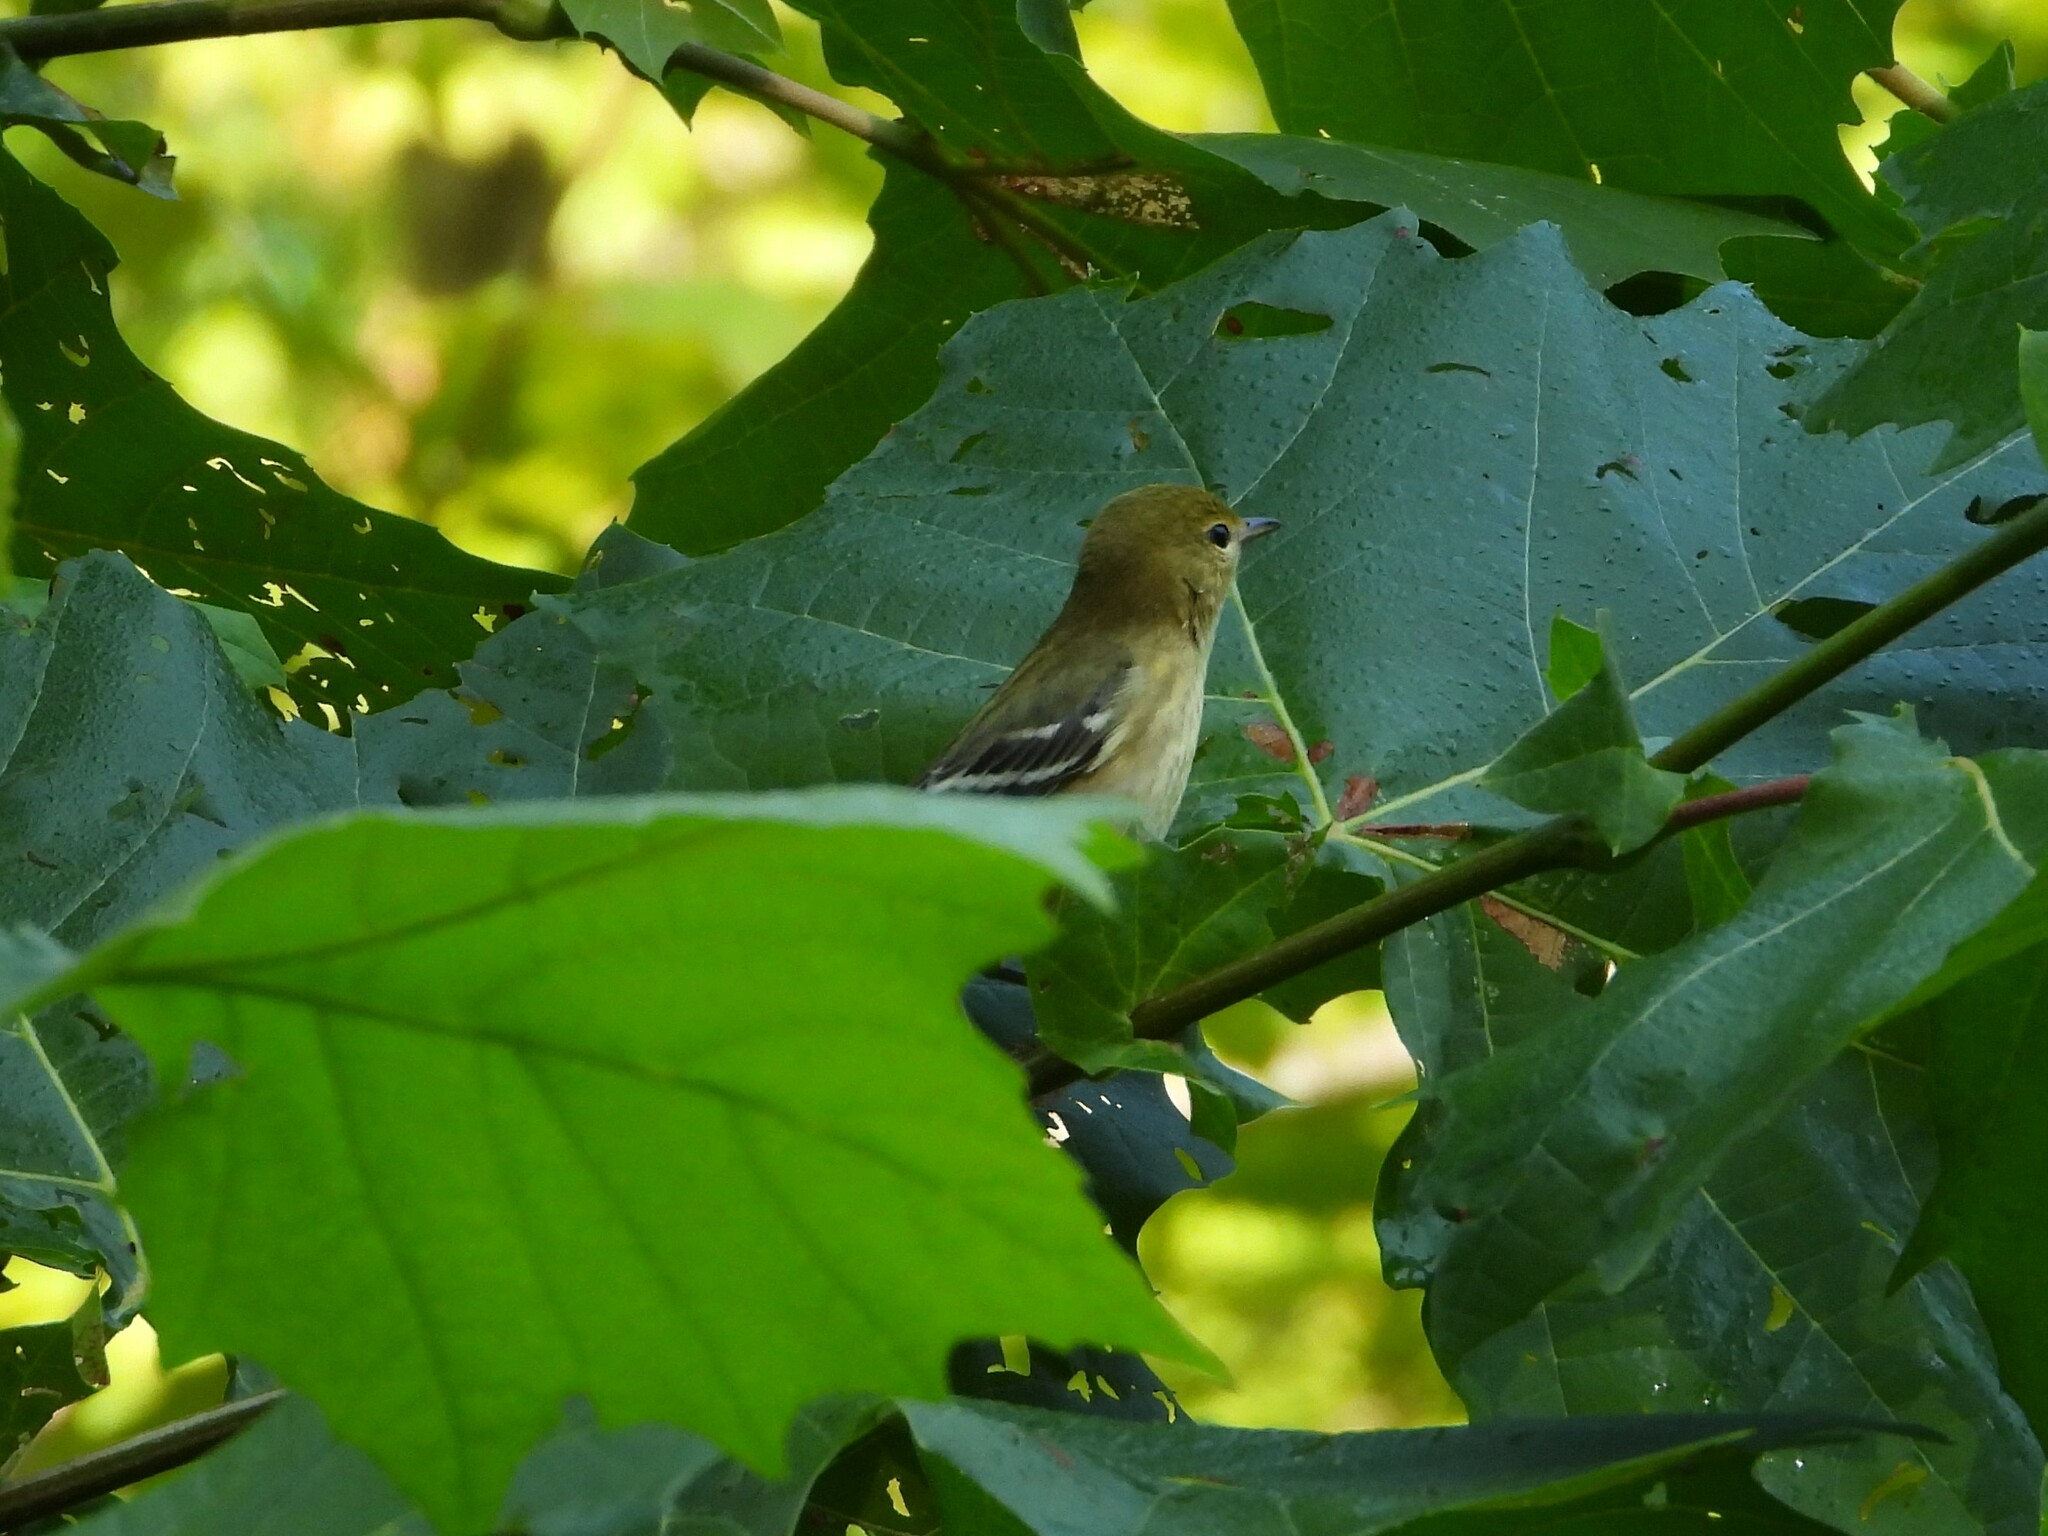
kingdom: Animalia
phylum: Chordata
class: Aves
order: Passeriformes
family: Parulidae
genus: Setophaga
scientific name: Setophaga castanea
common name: Bay-breasted warbler
